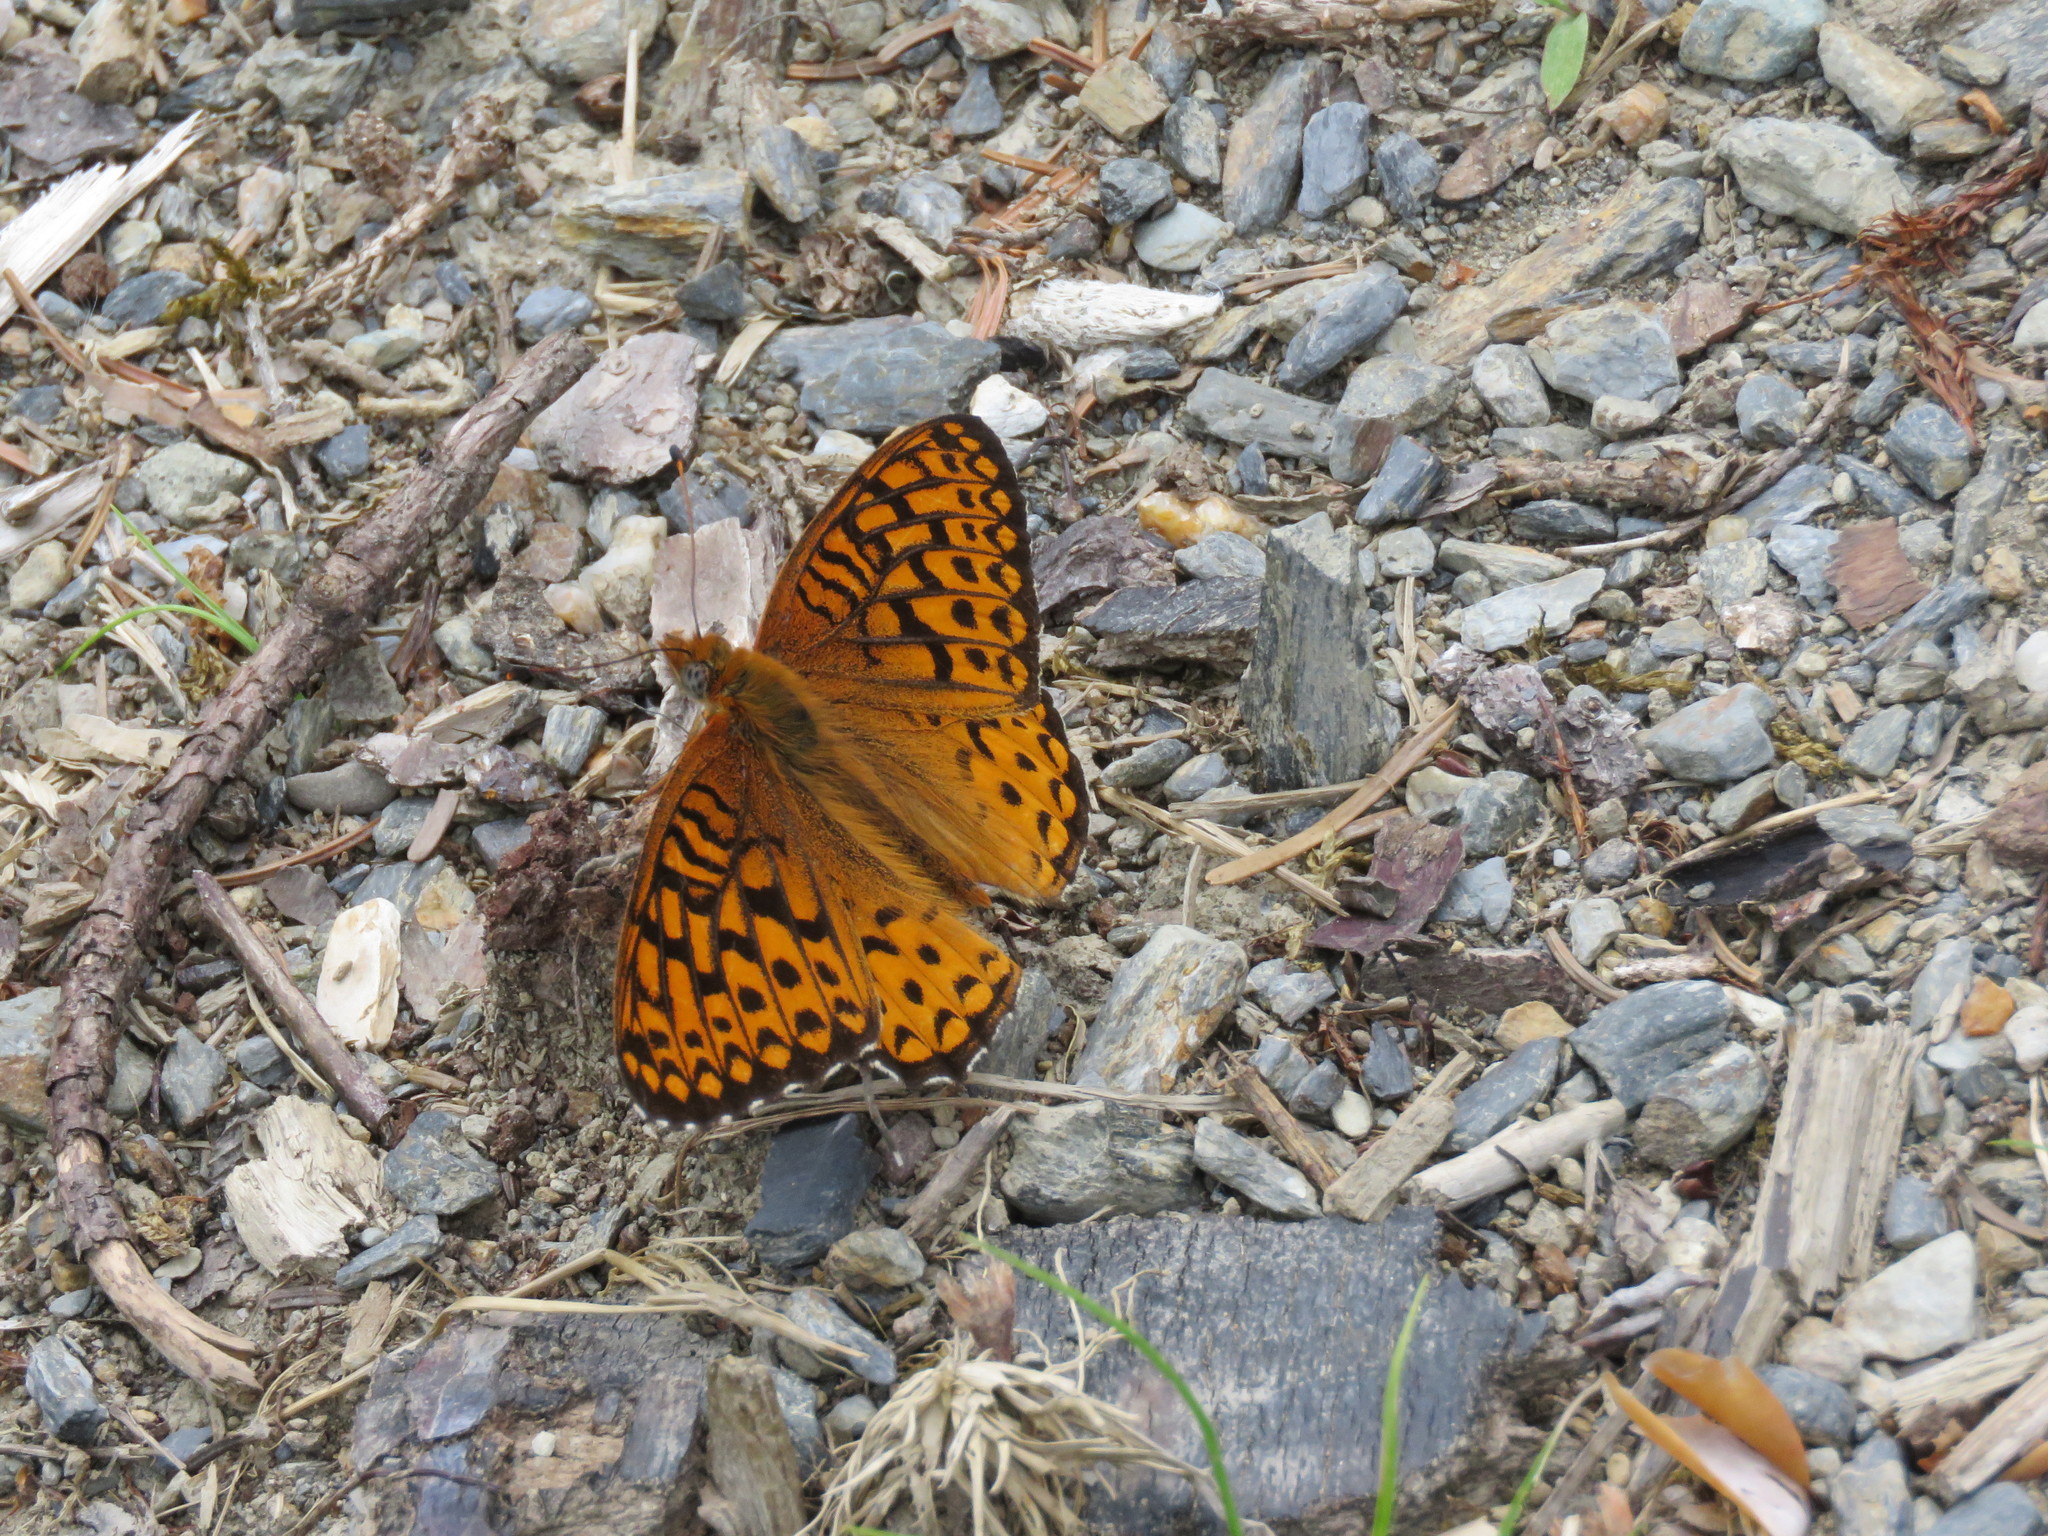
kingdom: Animalia
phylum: Arthropoda
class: Insecta
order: Lepidoptera
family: Nymphalidae
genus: Speyeria
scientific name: Speyeria atlantis
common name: Atlantis fritillary
